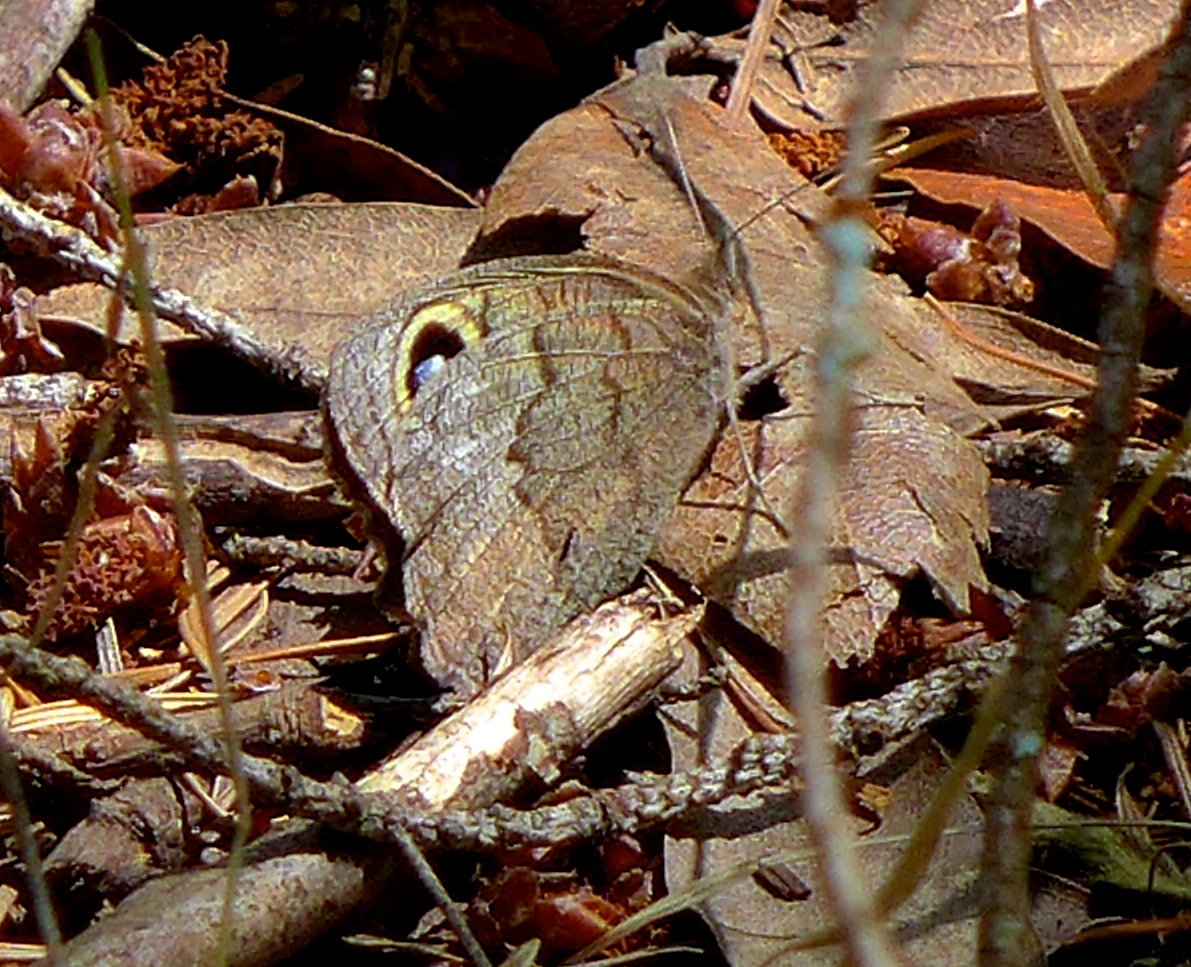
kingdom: Animalia
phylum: Arthropoda
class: Insecta
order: Lepidoptera
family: Nymphalidae
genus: Cercyonis
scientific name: Cercyonis pegala
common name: Common wood-nymph
